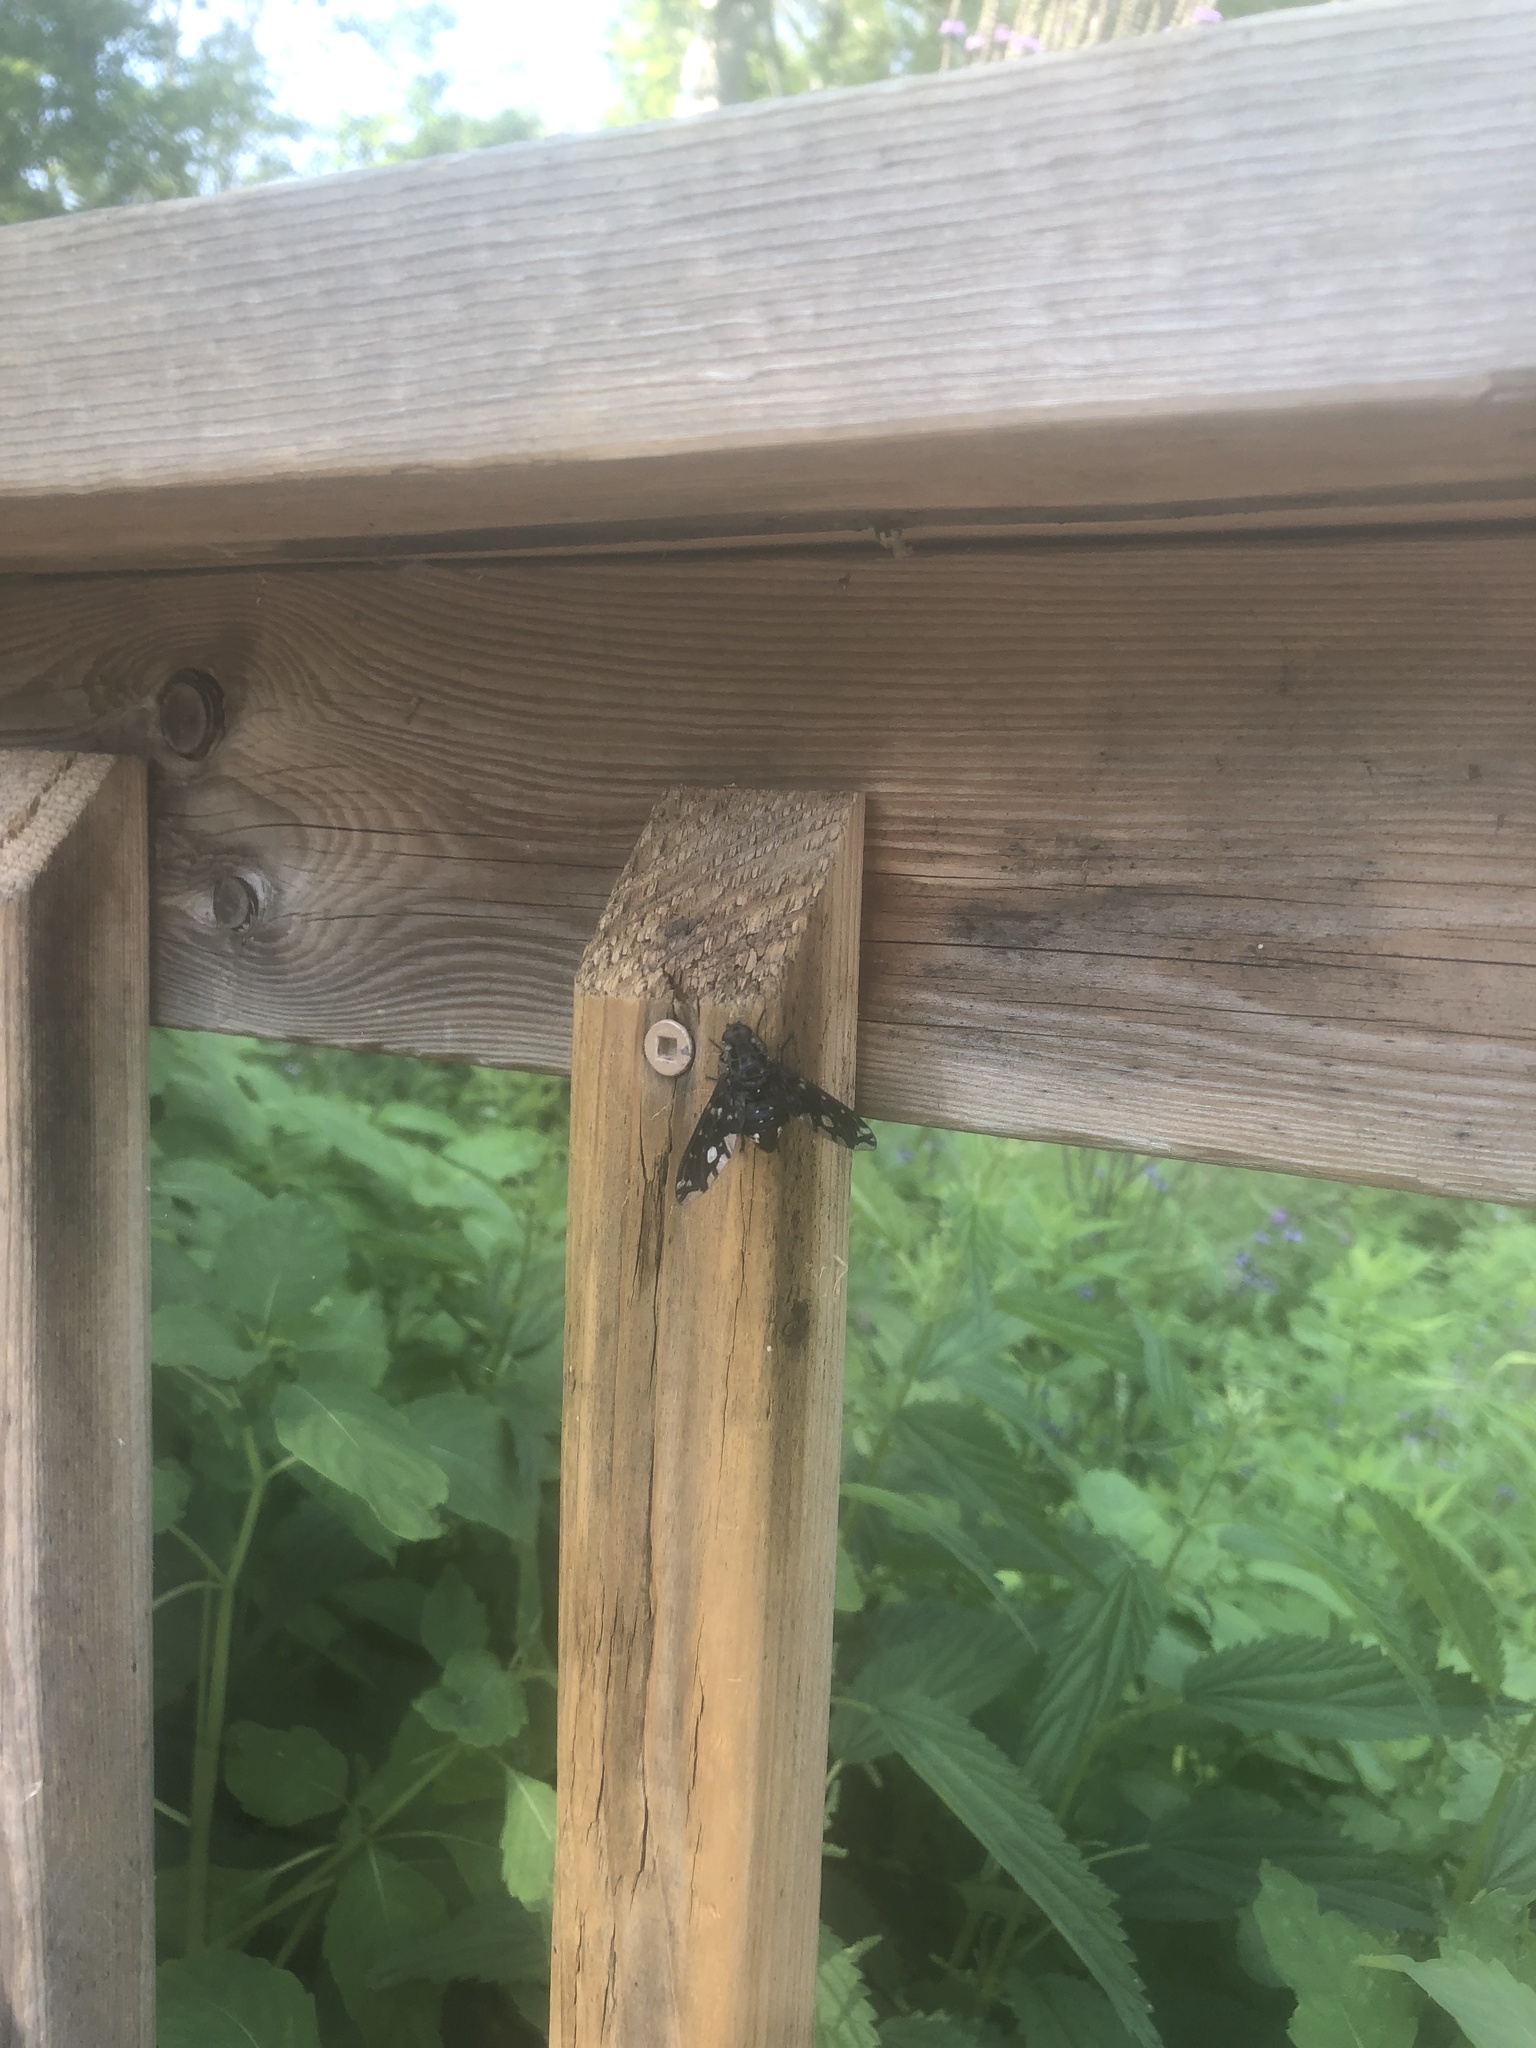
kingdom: Animalia
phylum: Arthropoda
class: Insecta
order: Diptera
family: Bombyliidae
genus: Xenox
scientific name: Xenox tigrinus
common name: Tiger bee fly
